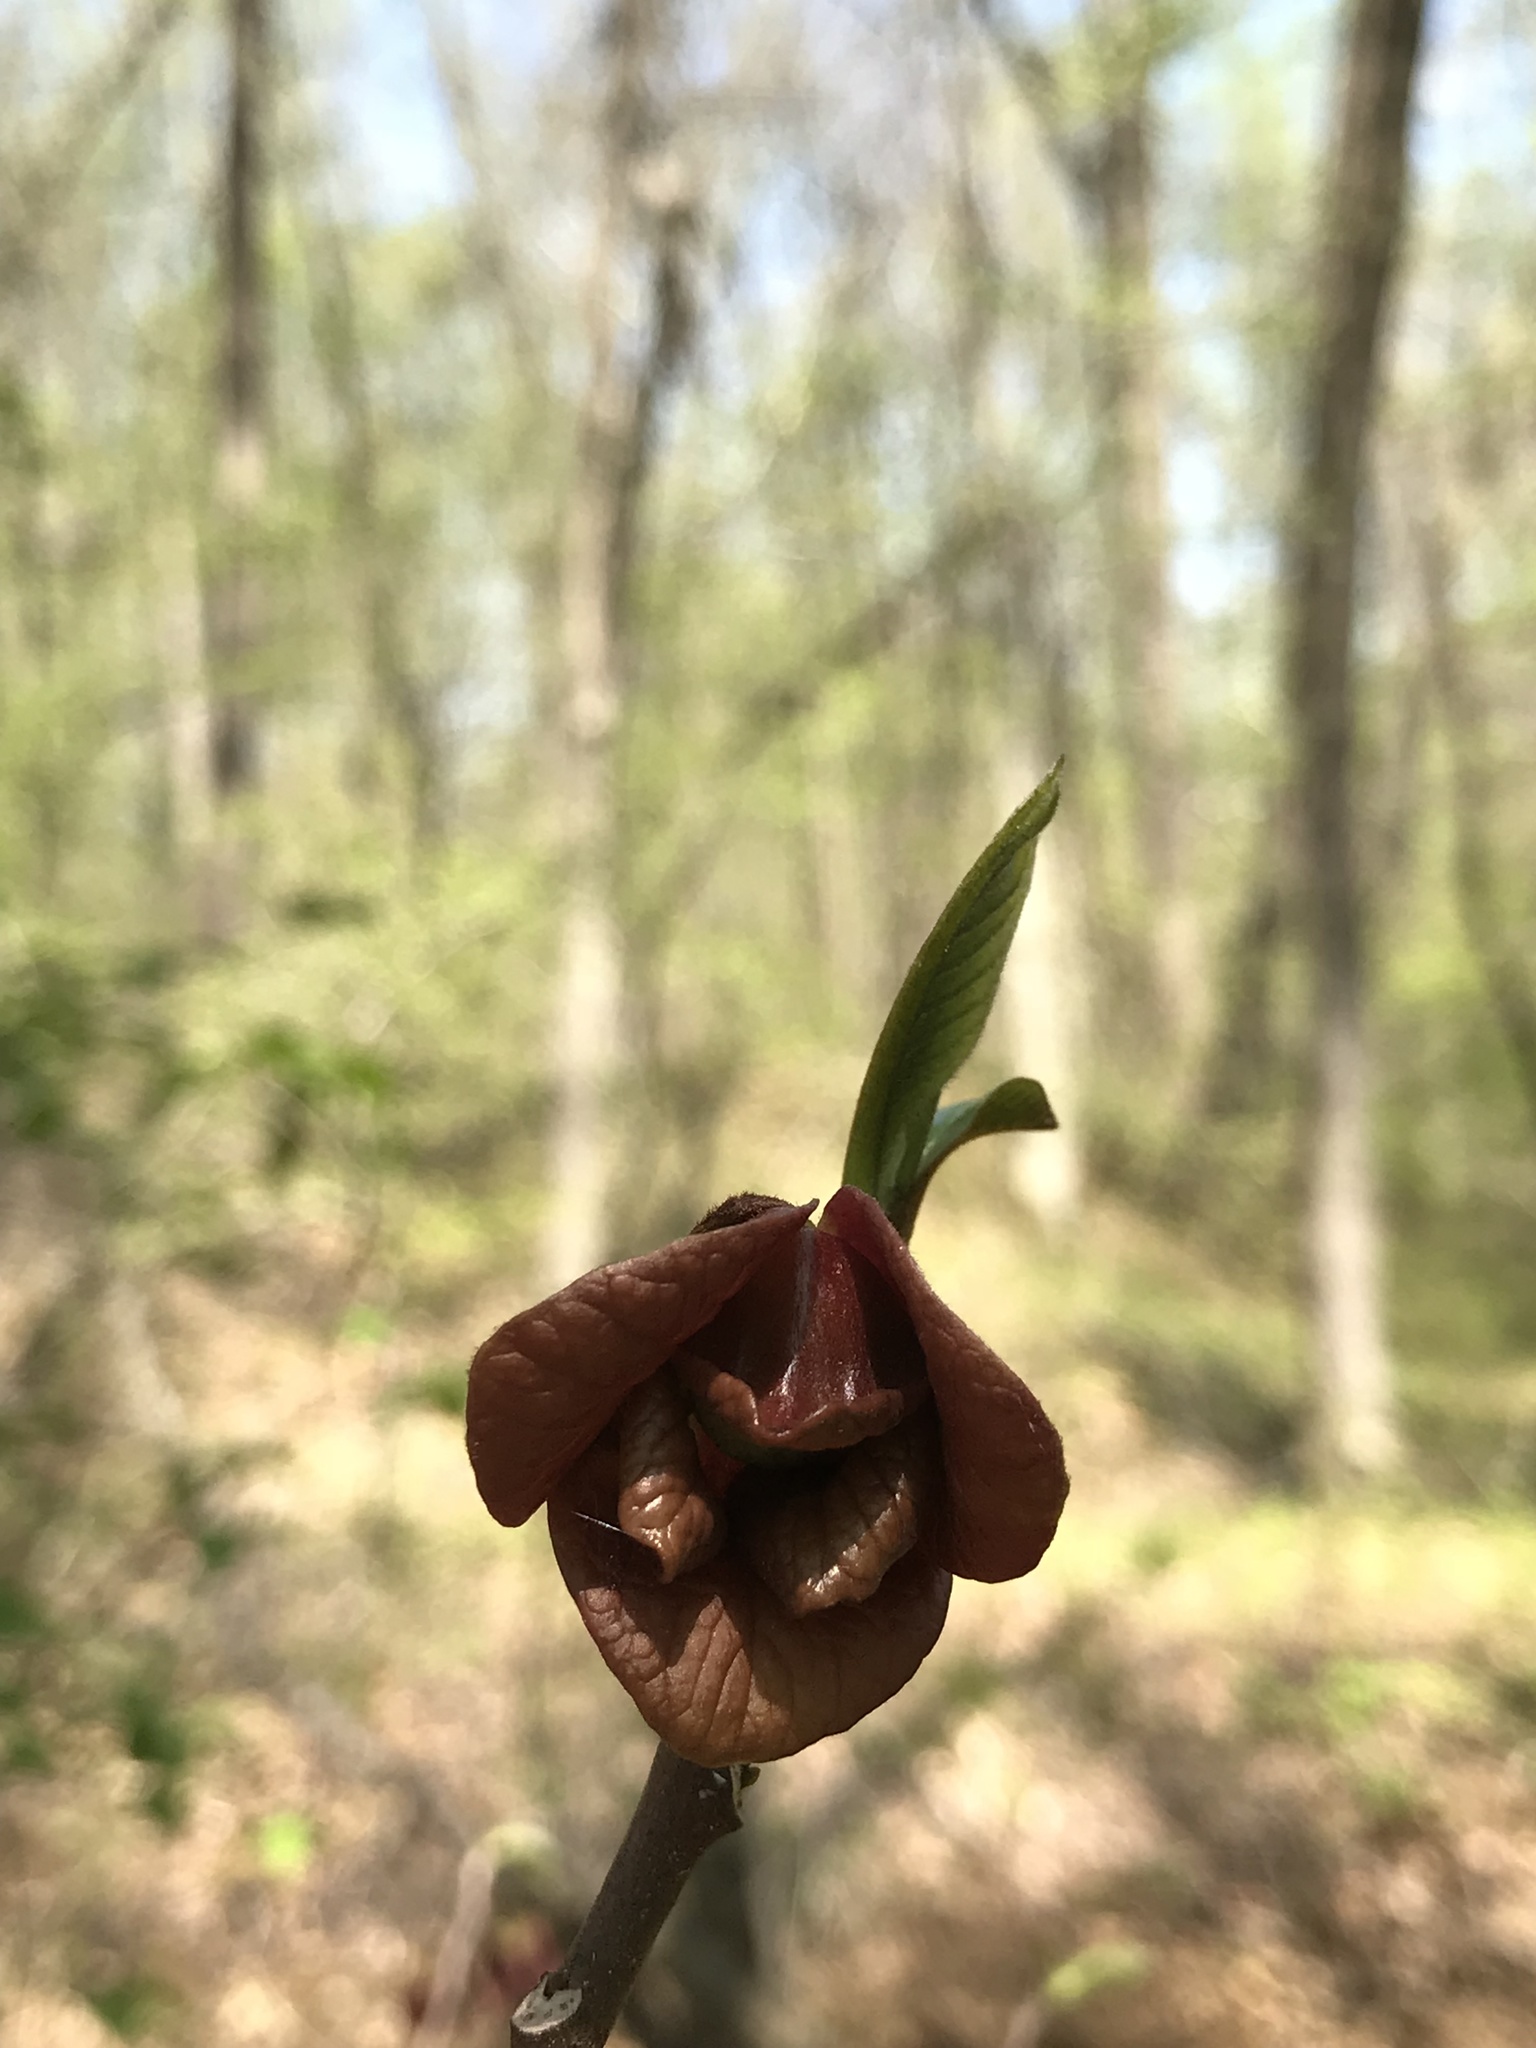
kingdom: Plantae
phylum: Tracheophyta
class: Magnoliopsida
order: Magnoliales
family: Annonaceae
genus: Asimina
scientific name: Asimina triloba
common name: Dog-banana
